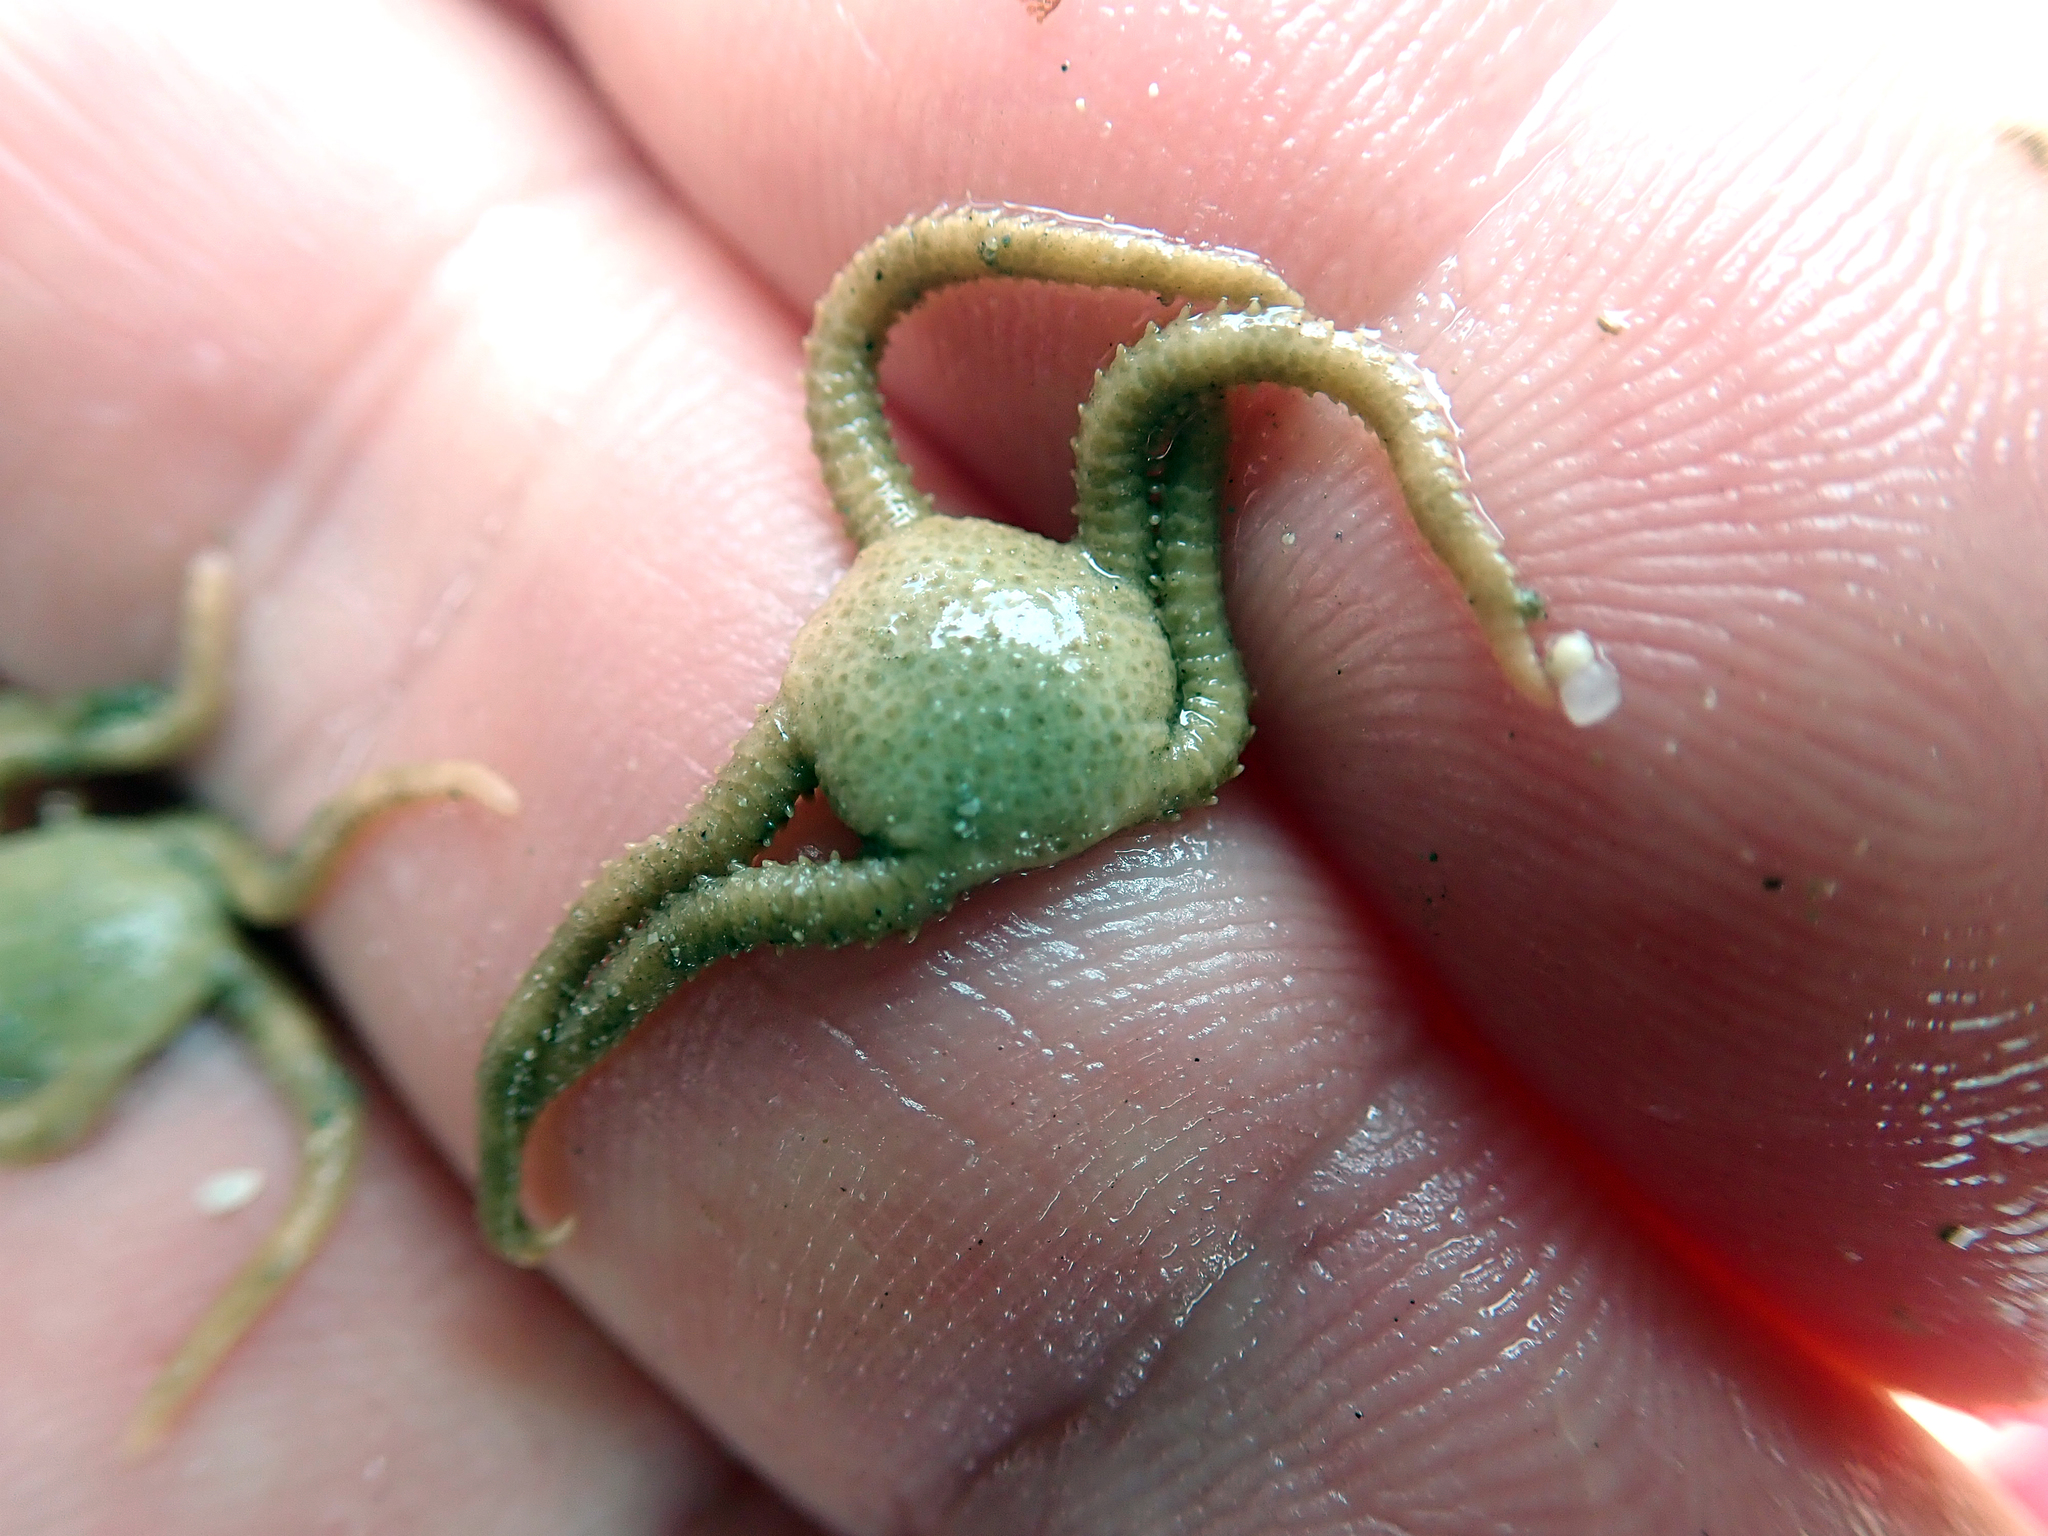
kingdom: Animalia
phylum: Echinodermata
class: Ophiuroidea
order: Amphilepidida
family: Hemieuryalidae
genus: Ophioplocus
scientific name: Ophioplocus huttoni
